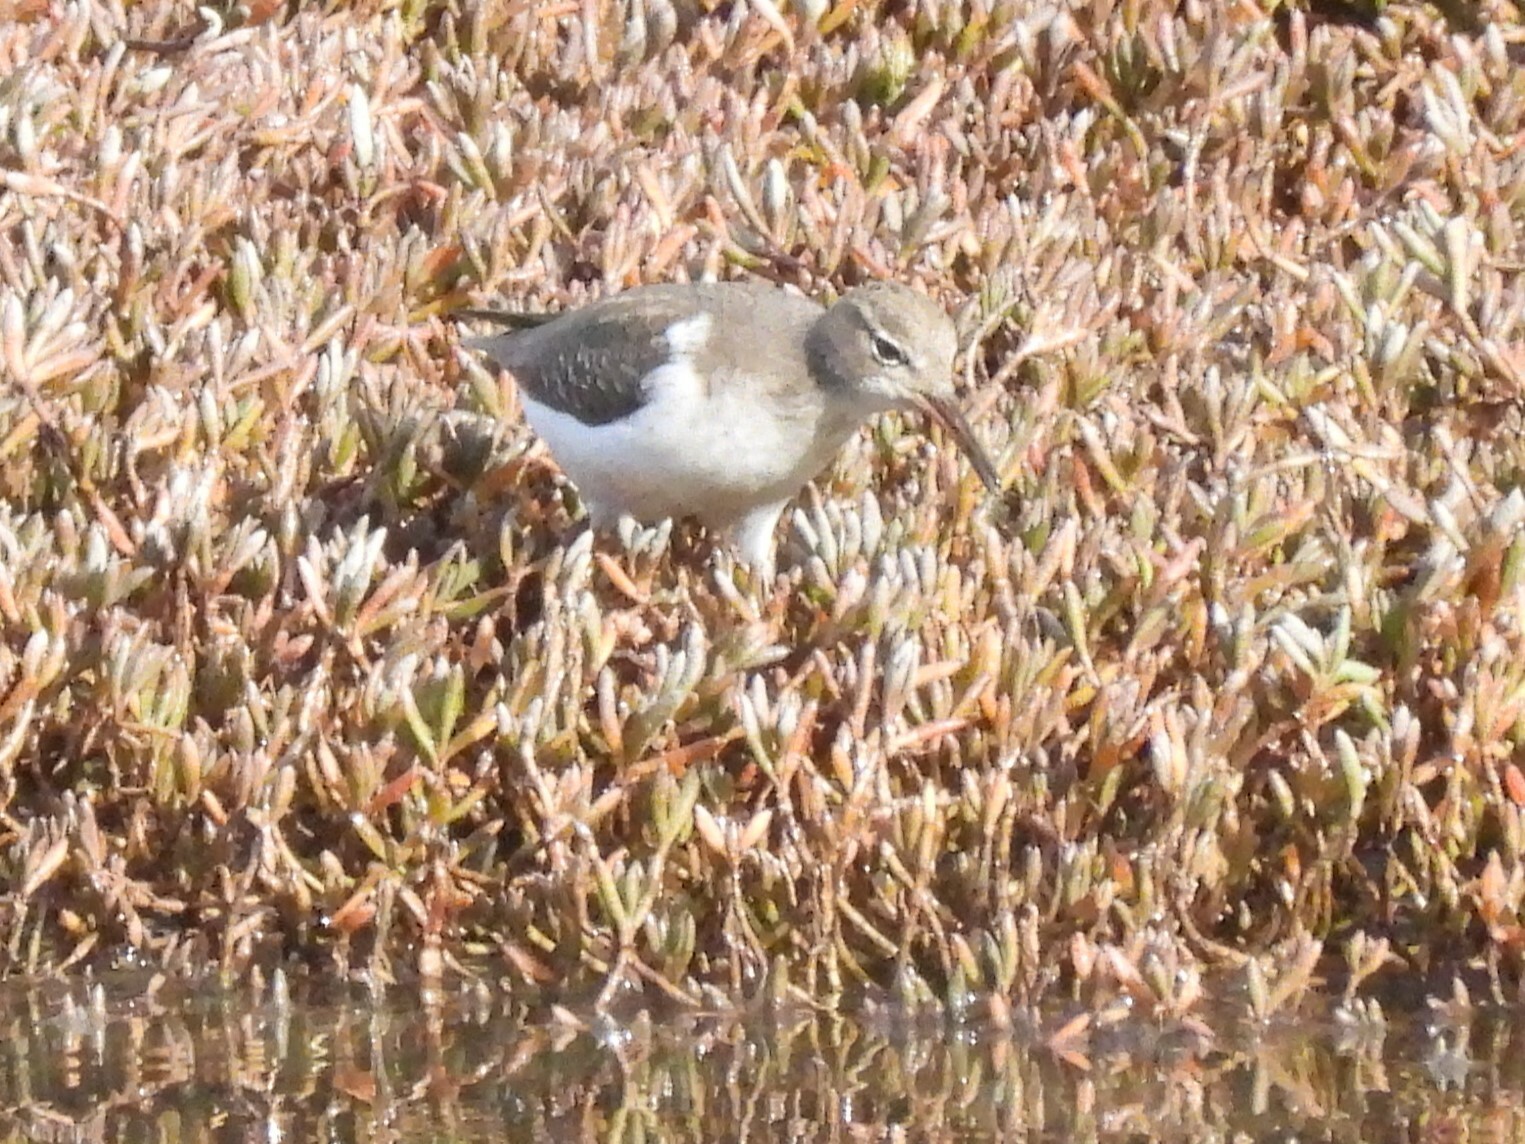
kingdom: Animalia
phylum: Chordata
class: Aves
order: Charadriiformes
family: Scolopacidae
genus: Actitis
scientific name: Actitis macularius
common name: Spotted sandpiper
